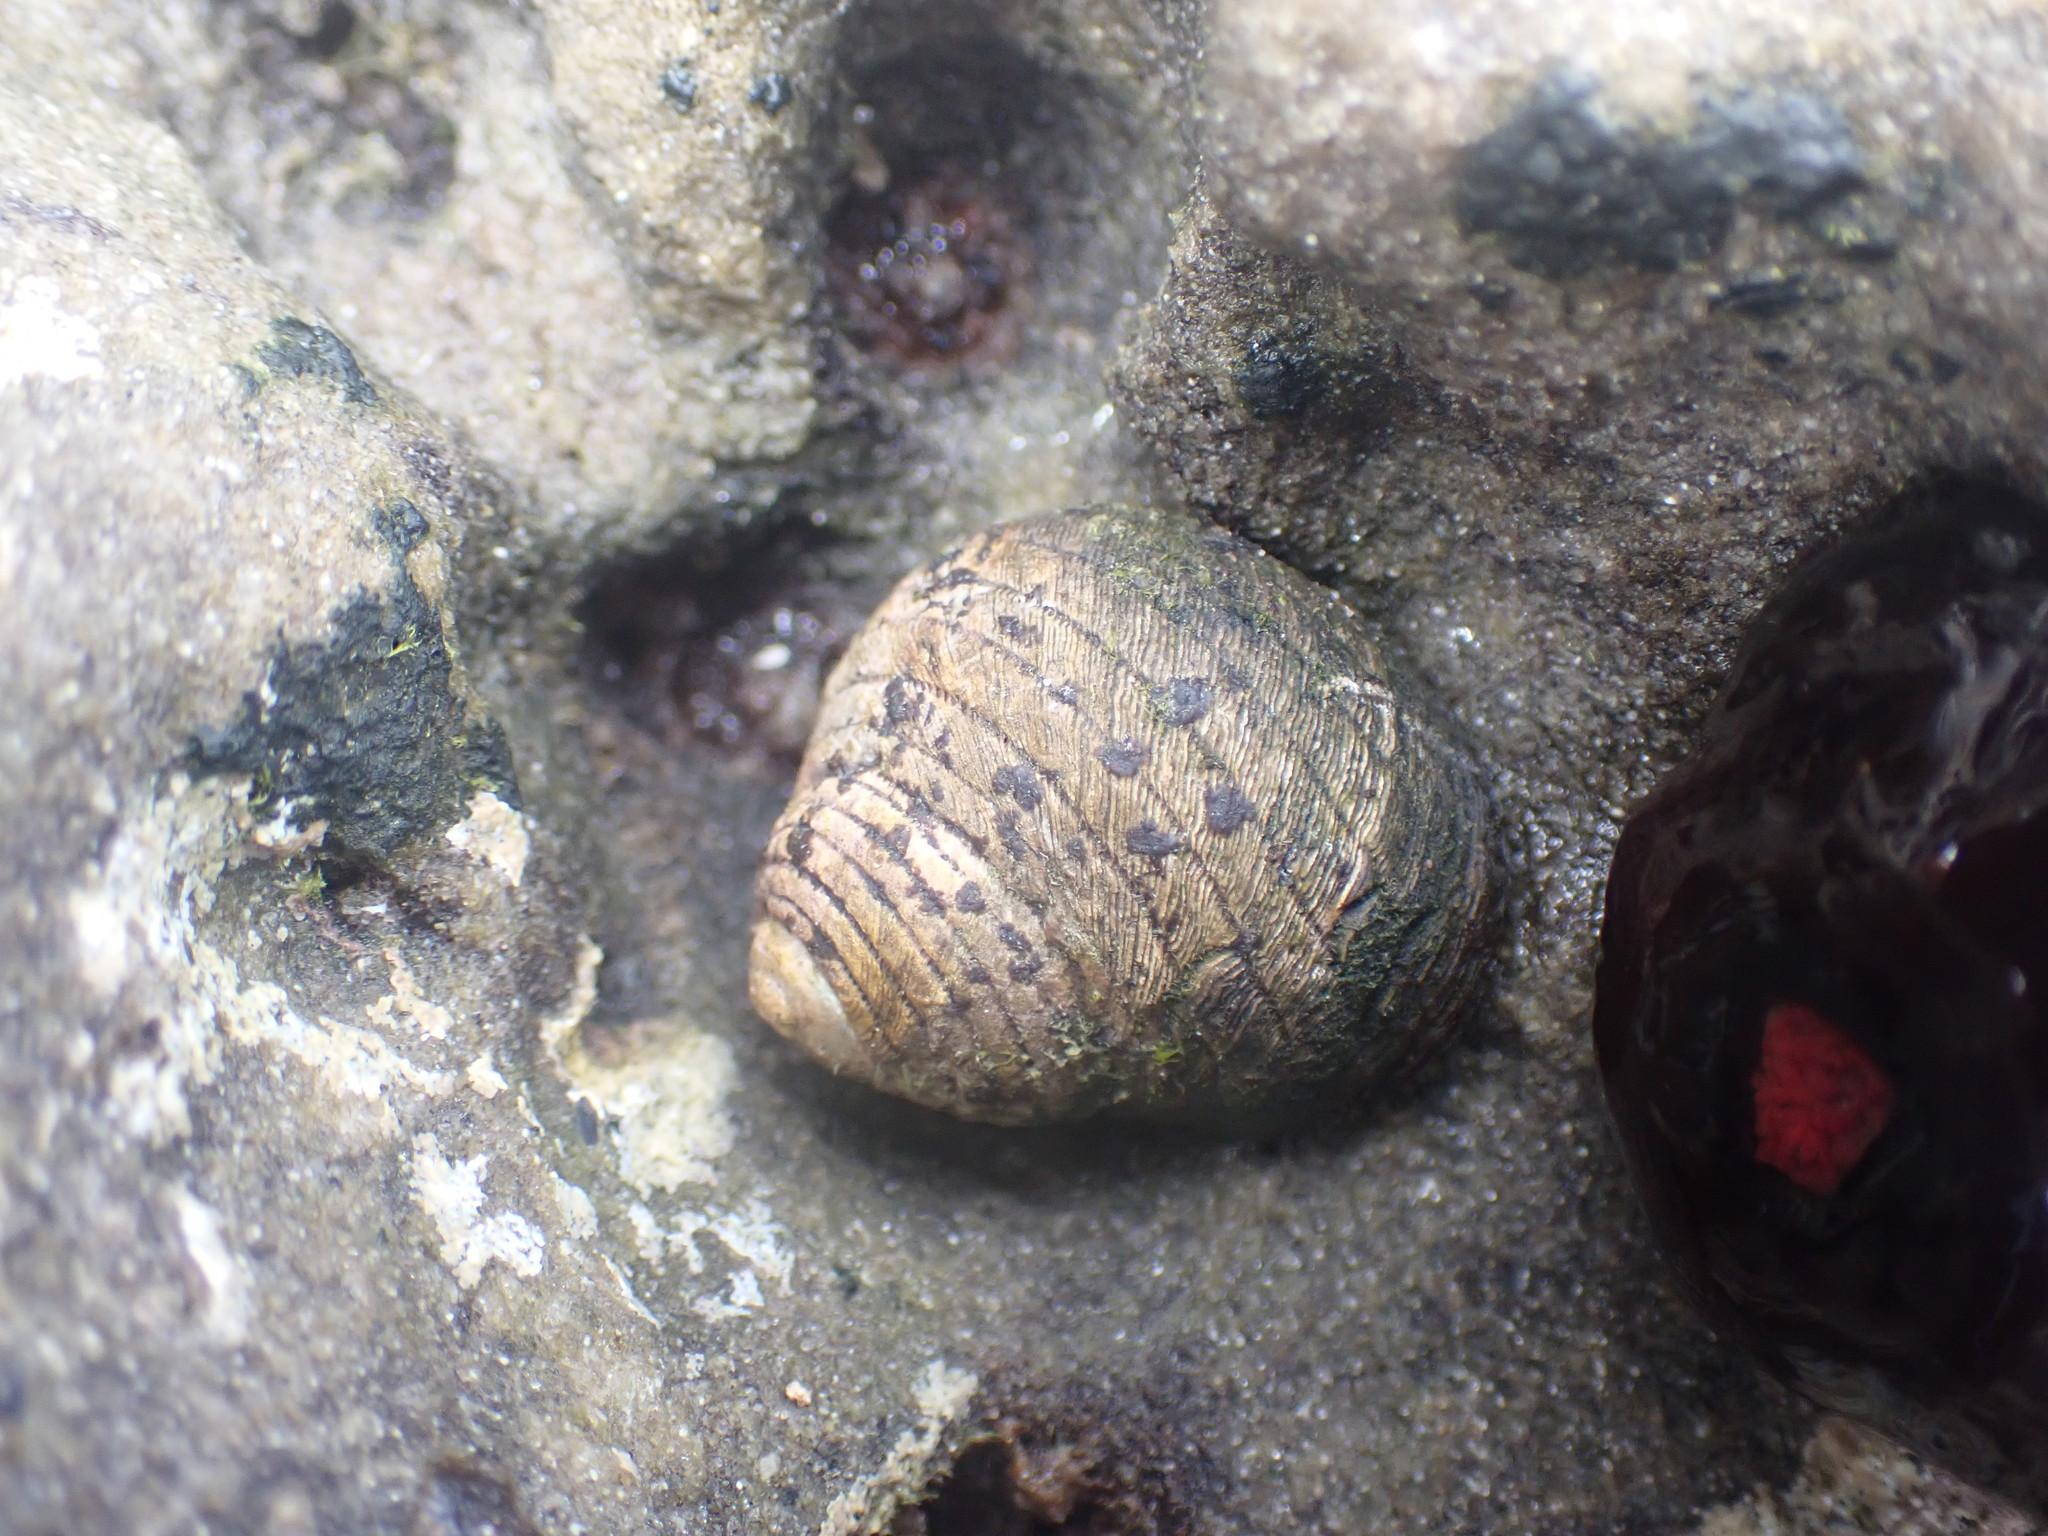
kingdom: Animalia
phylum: Mollusca
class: Gastropoda
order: Trochida
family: Trochidae
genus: Diloma
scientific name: Diloma aethiops
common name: Scorched monodont
